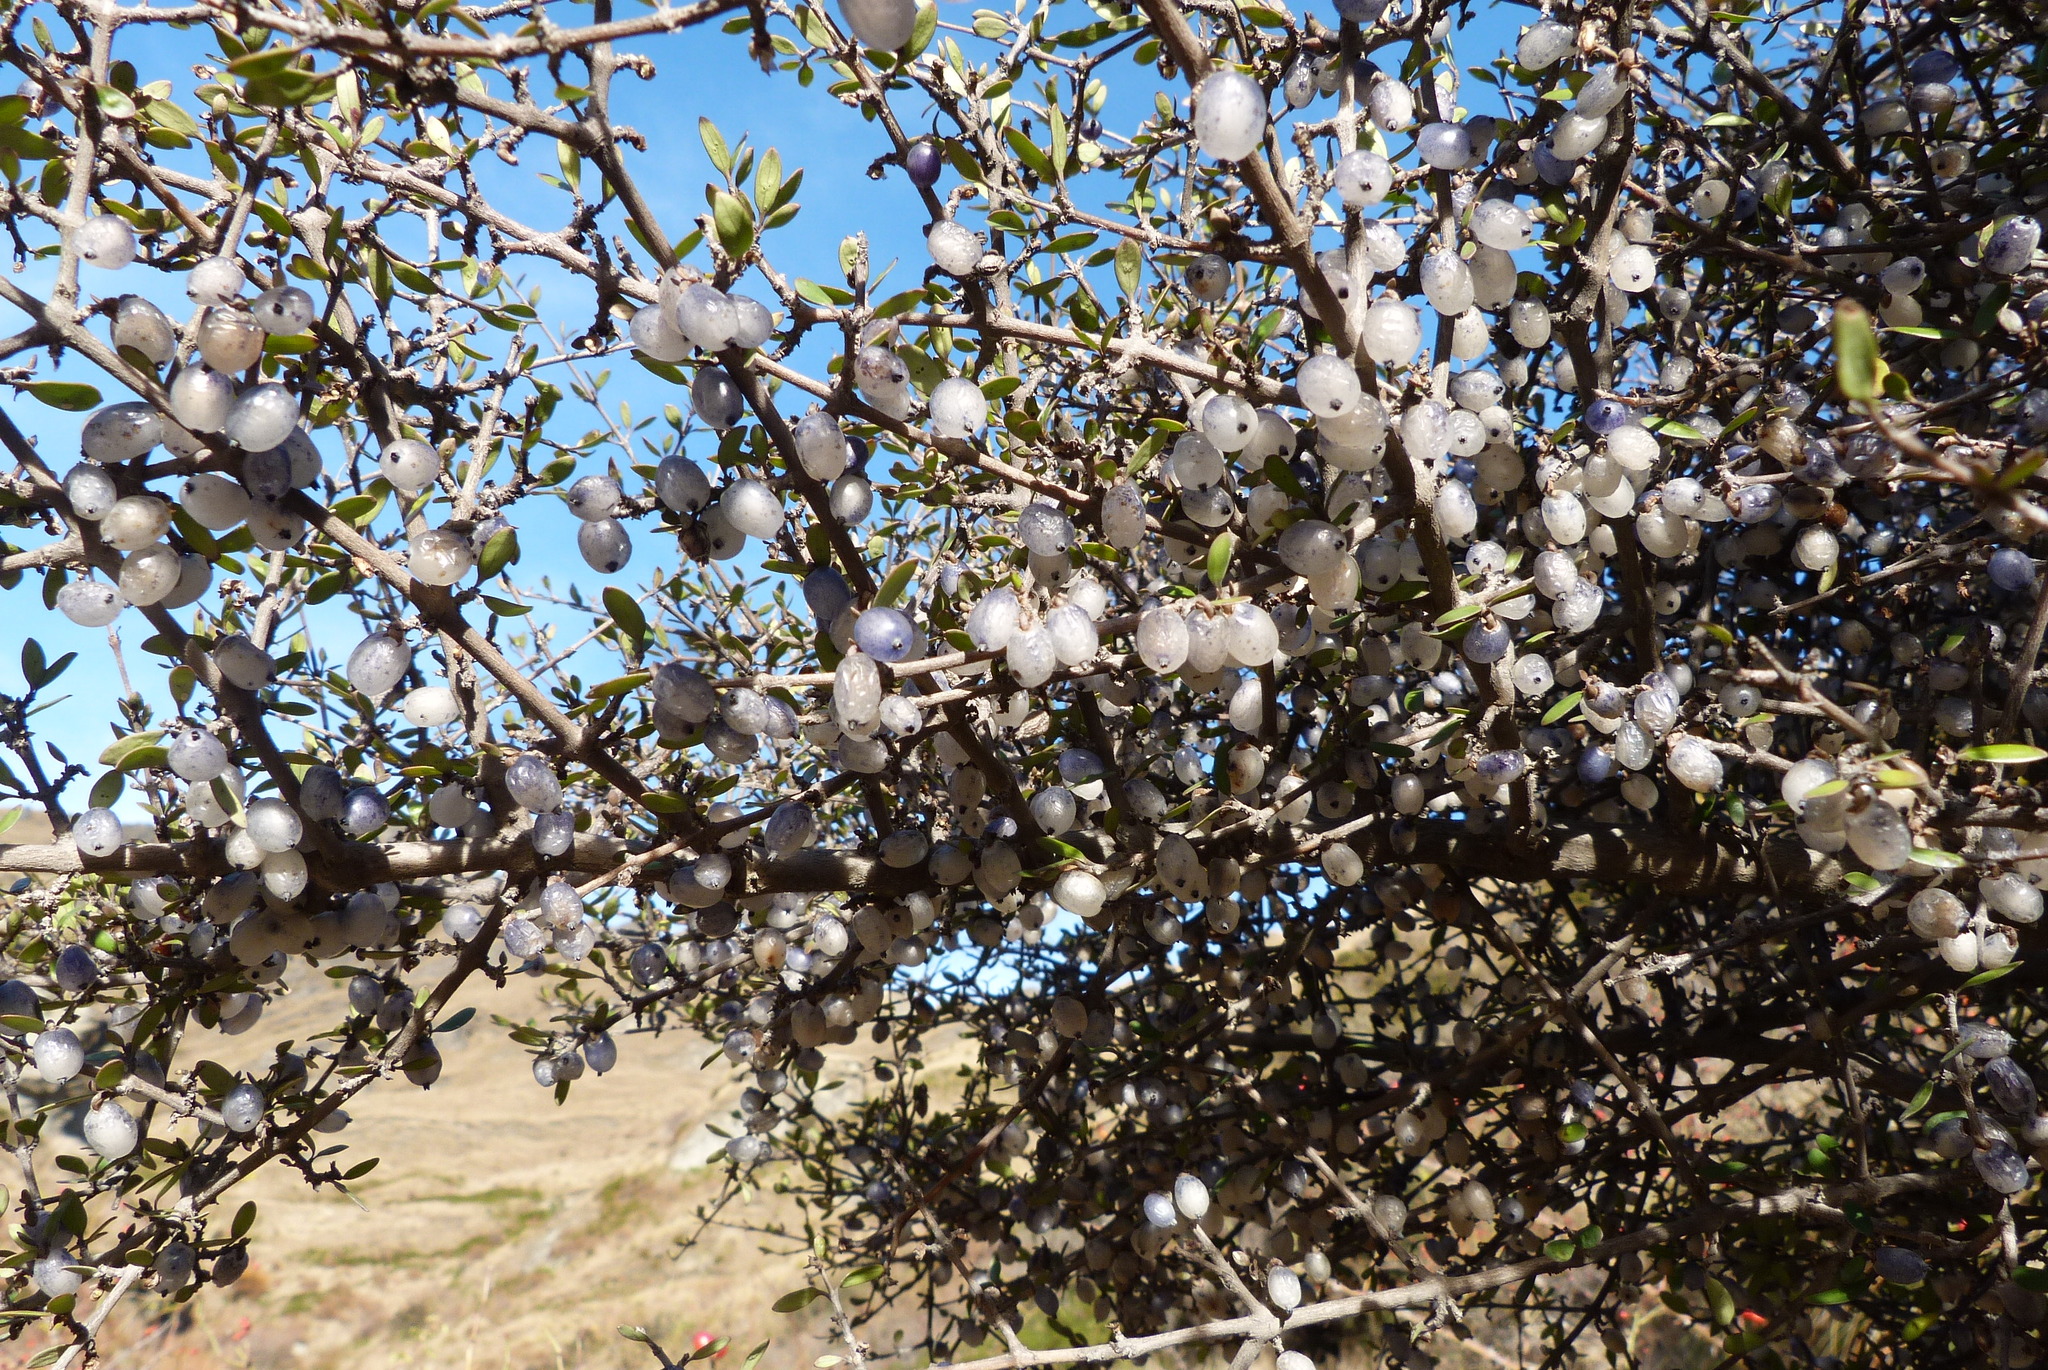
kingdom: Plantae
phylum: Tracheophyta
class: Magnoliopsida
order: Gentianales
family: Rubiaceae
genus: Coprosma
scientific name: Coprosma propinqua
